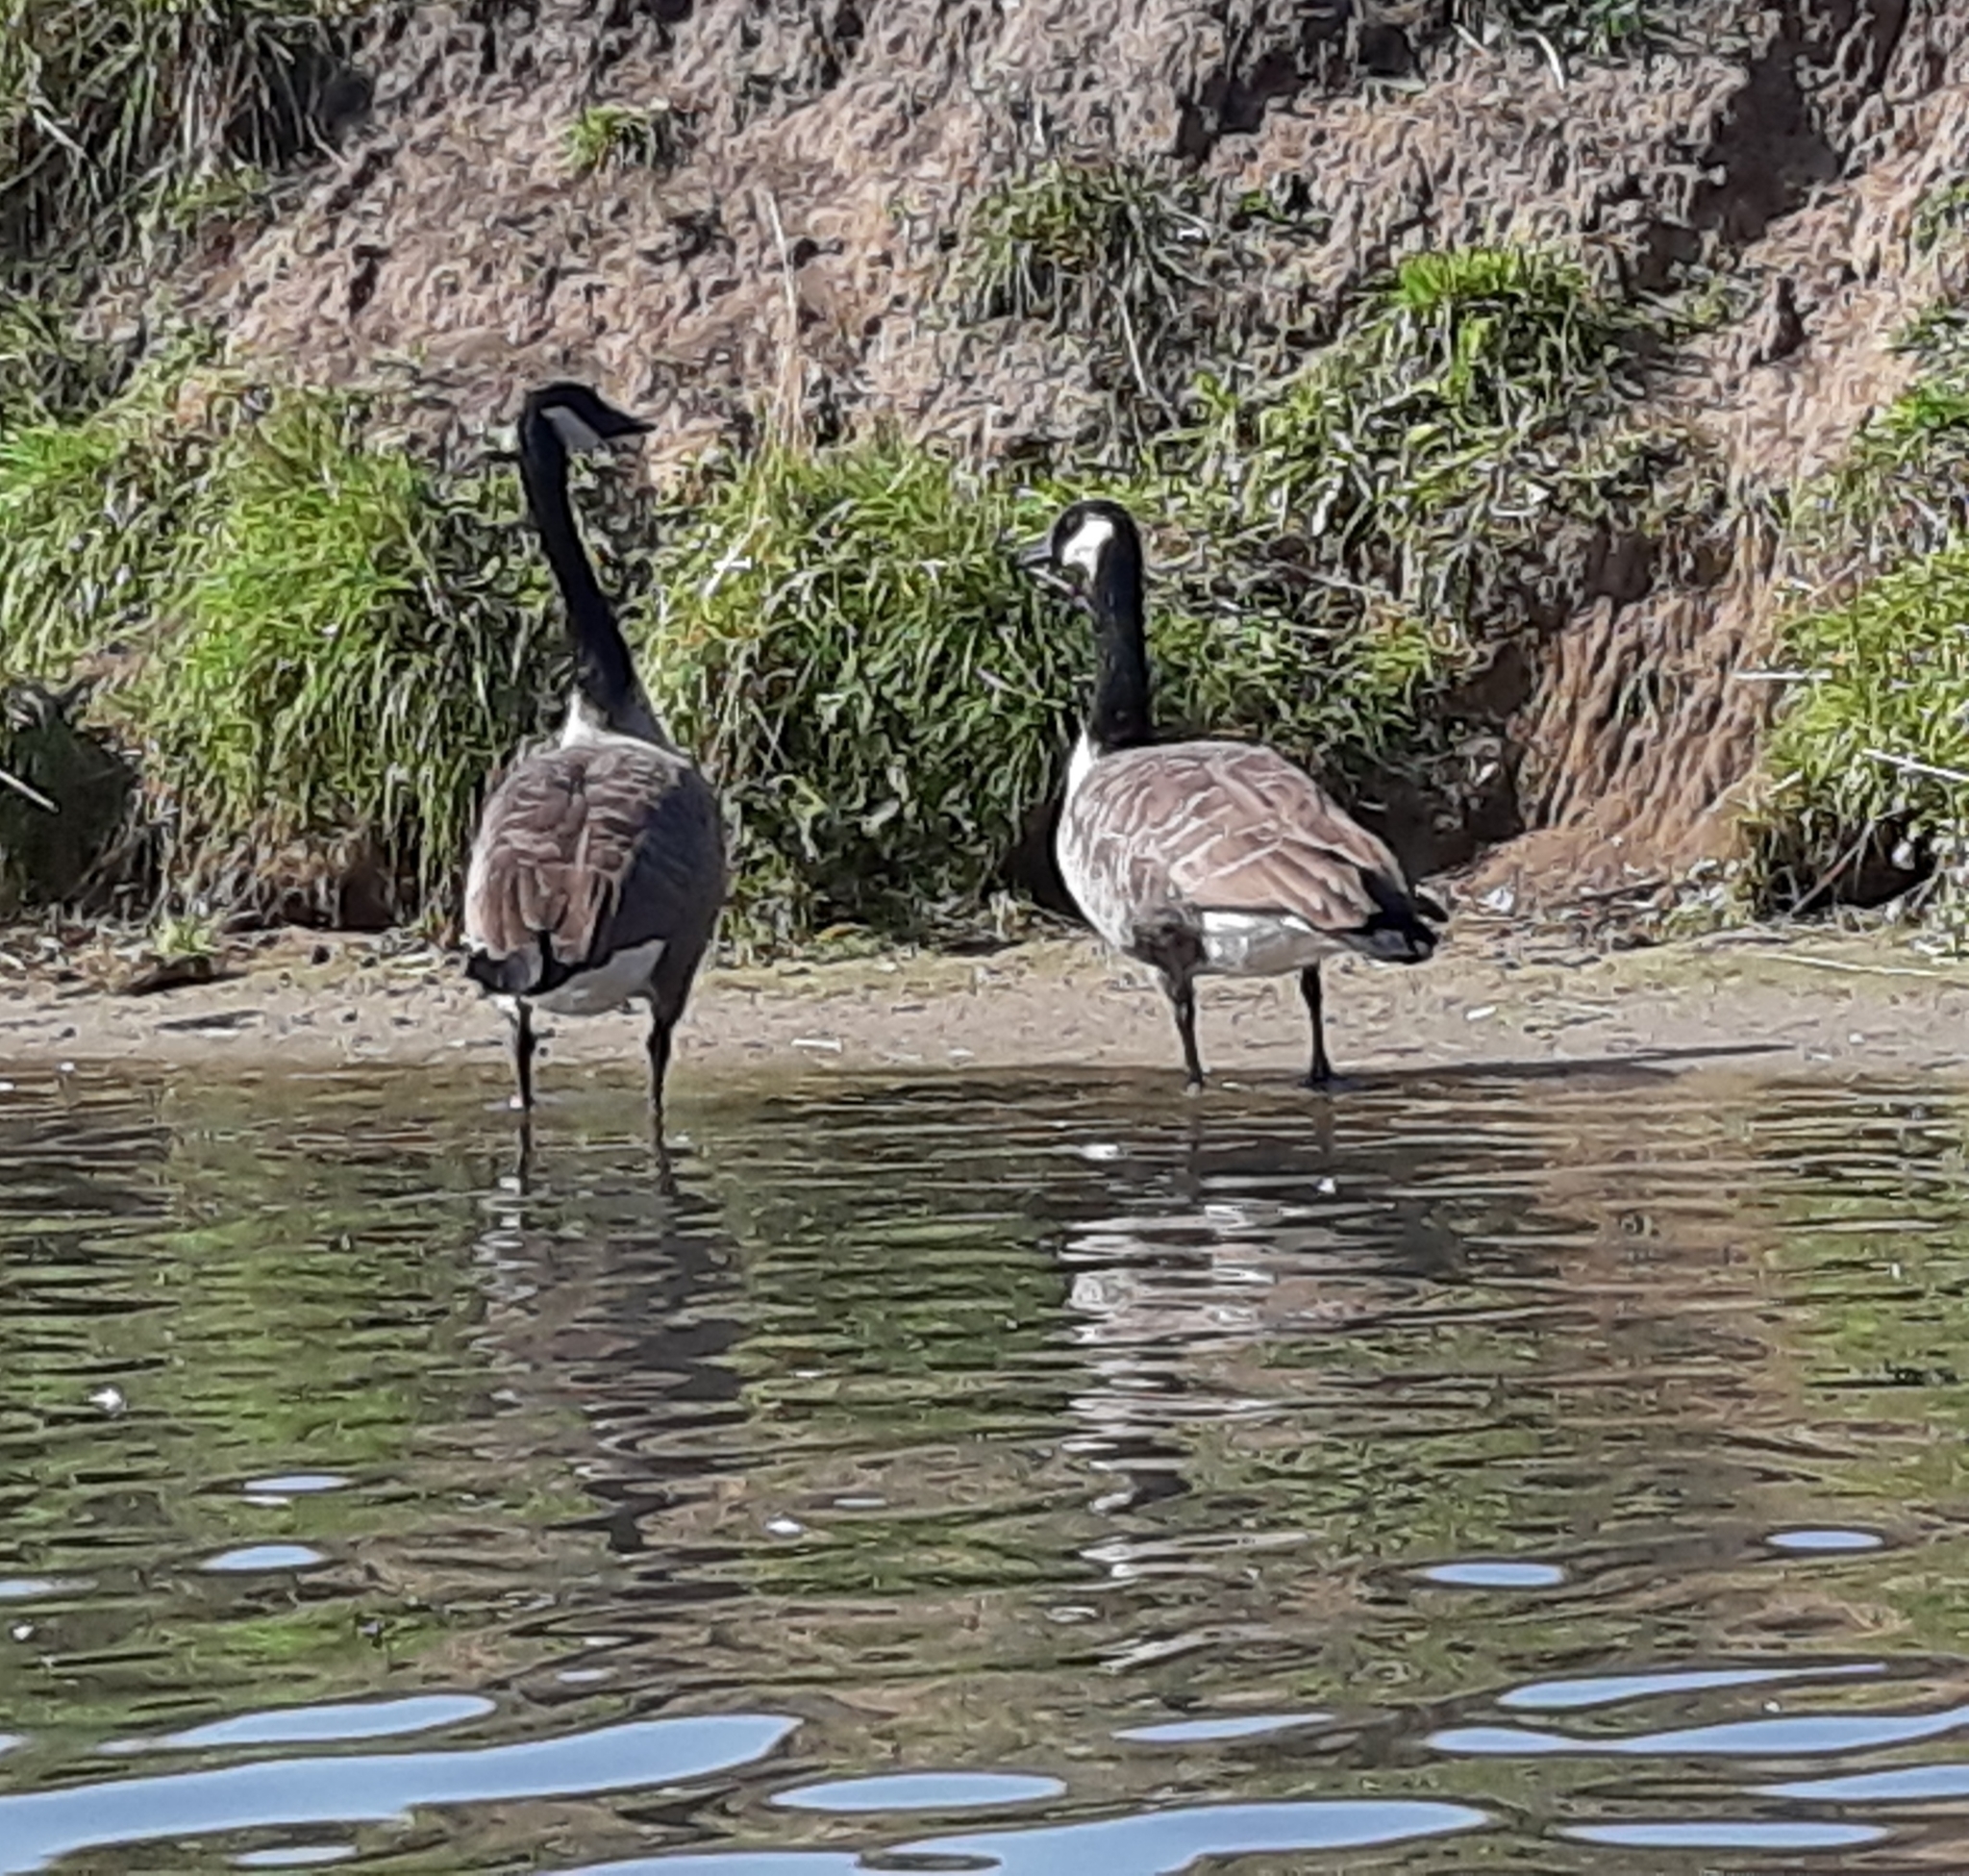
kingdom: Animalia
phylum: Chordata
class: Aves
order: Anseriformes
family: Anatidae
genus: Branta
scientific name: Branta canadensis
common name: Canada goose
